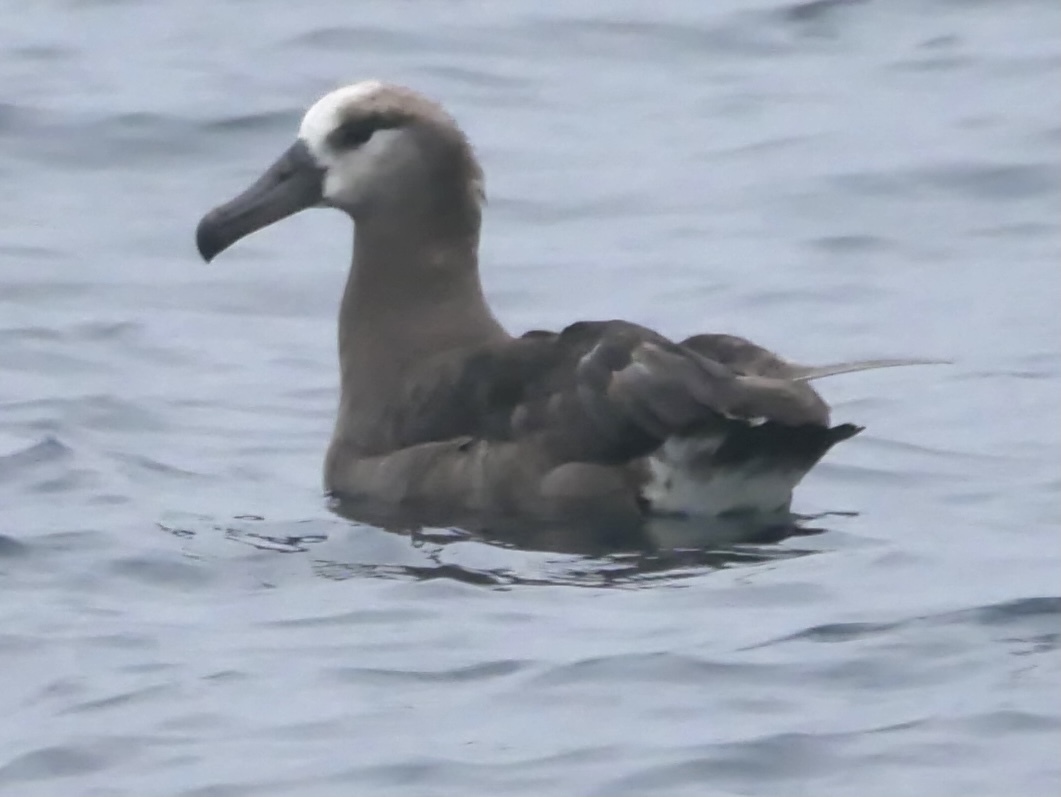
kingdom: Animalia
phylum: Chordata
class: Aves
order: Procellariiformes
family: Diomedeidae
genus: Phoebastria
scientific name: Phoebastria nigripes
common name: Black-footed albatross
